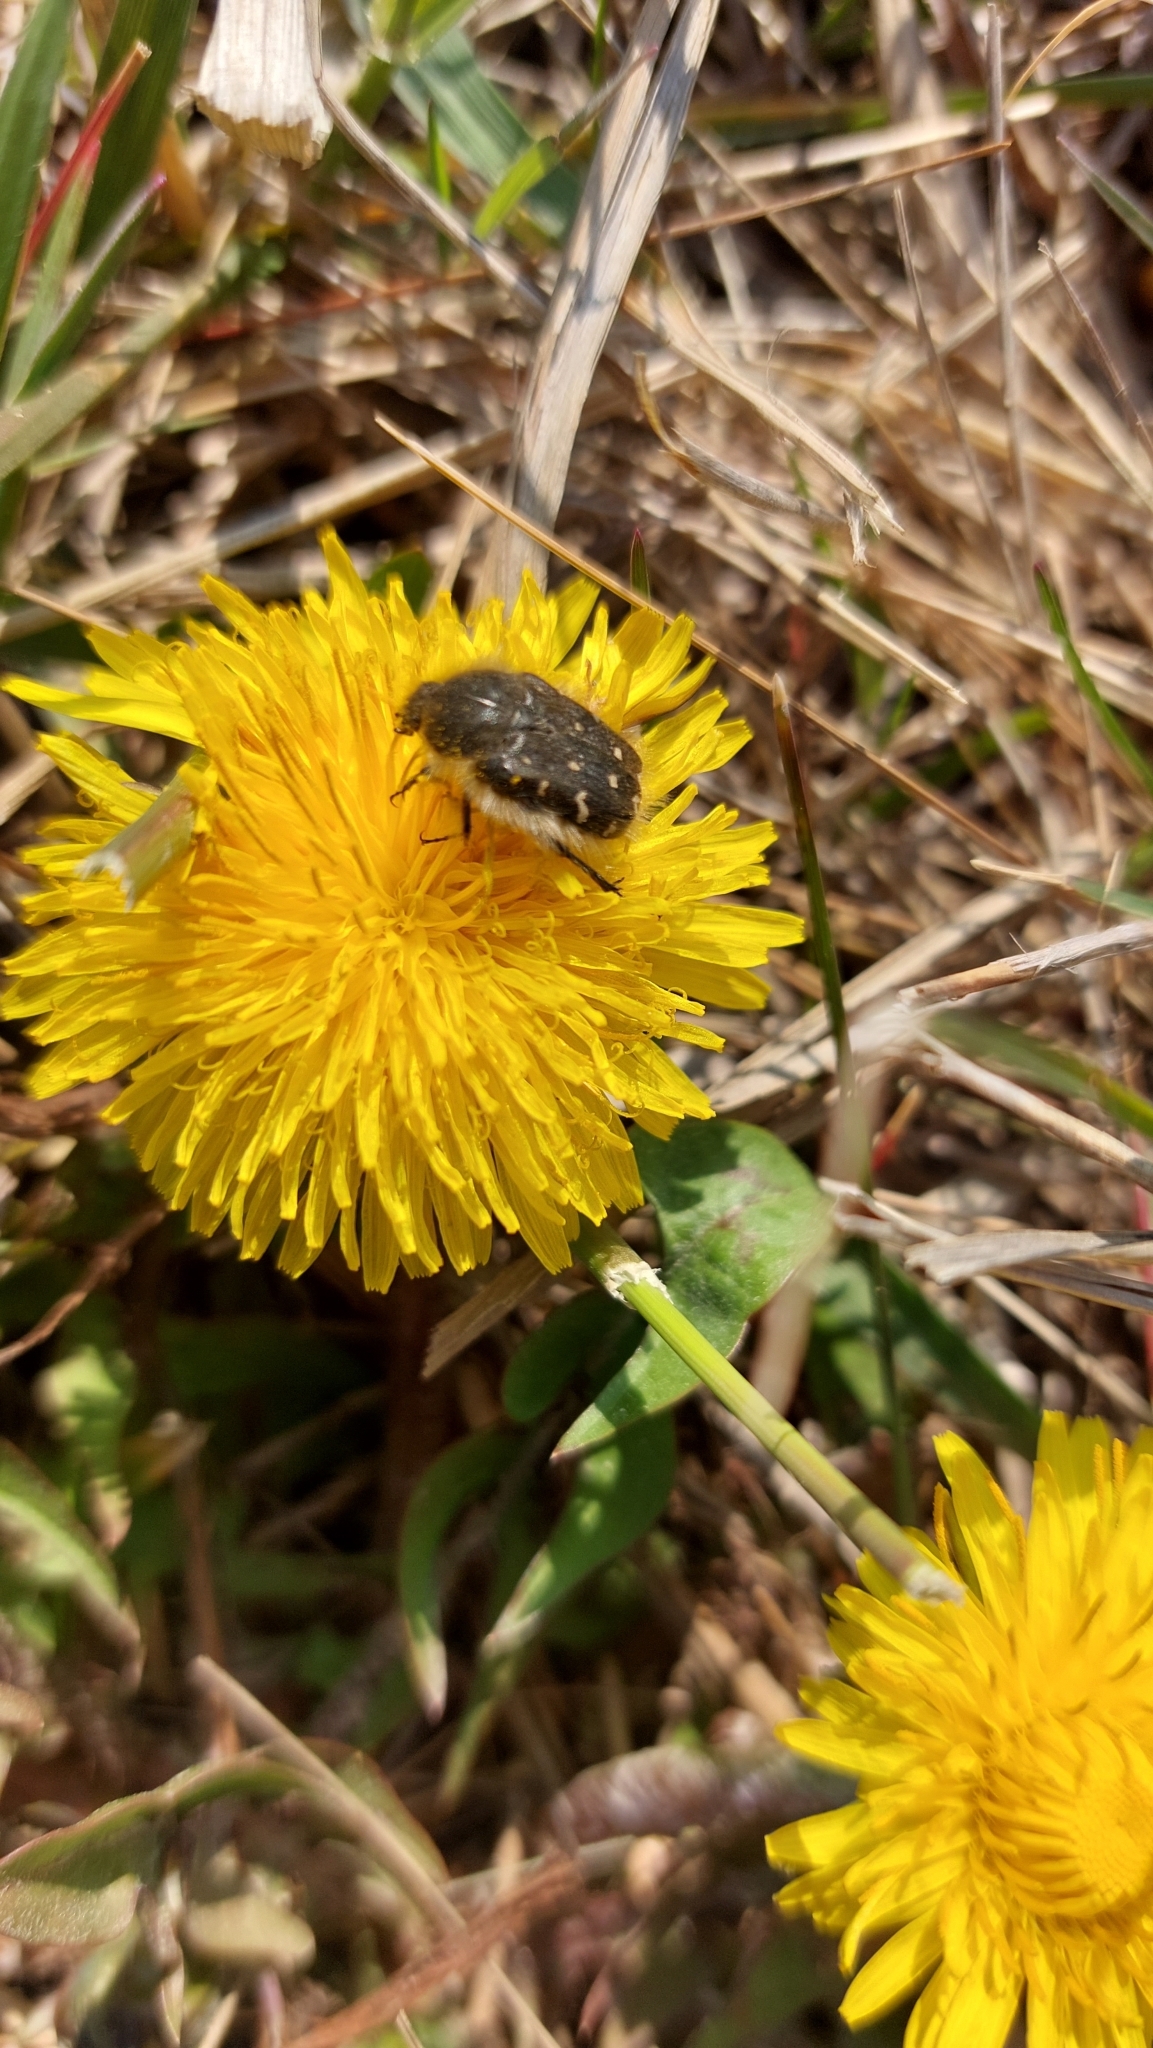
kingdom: Animalia
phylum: Arthropoda
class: Insecta
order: Coleoptera
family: Scarabaeidae
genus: Tropinota
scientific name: Tropinota hirta
